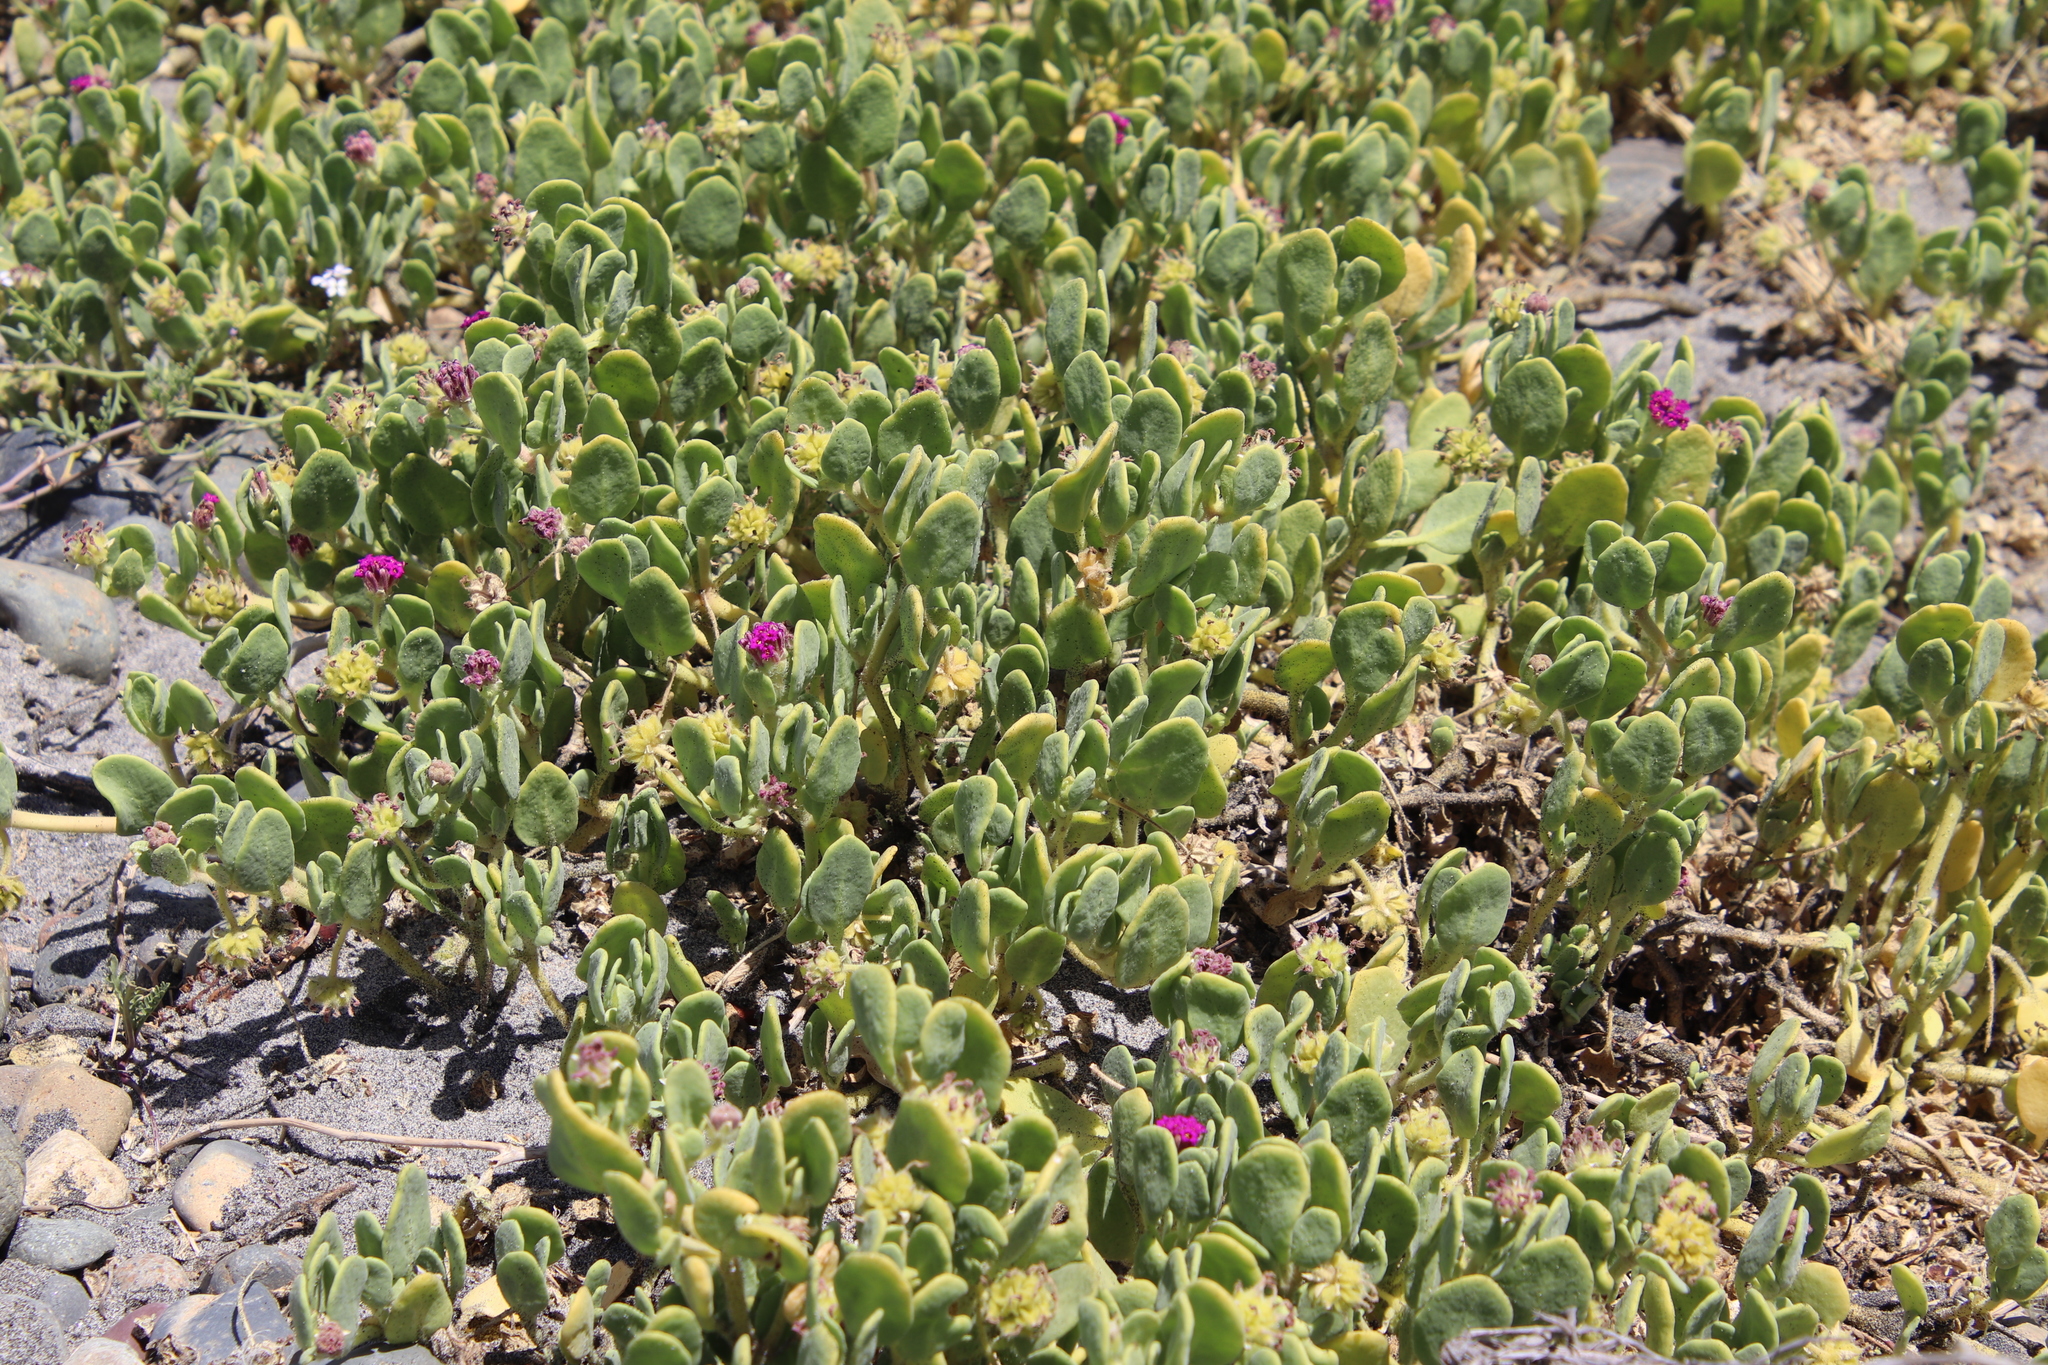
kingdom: Plantae
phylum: Tracheophyta
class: Magnoliopsida
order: Caryophyllales
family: Nyctaginaceae
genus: Abronia
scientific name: Abronia maritima
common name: Red sand-verbena
